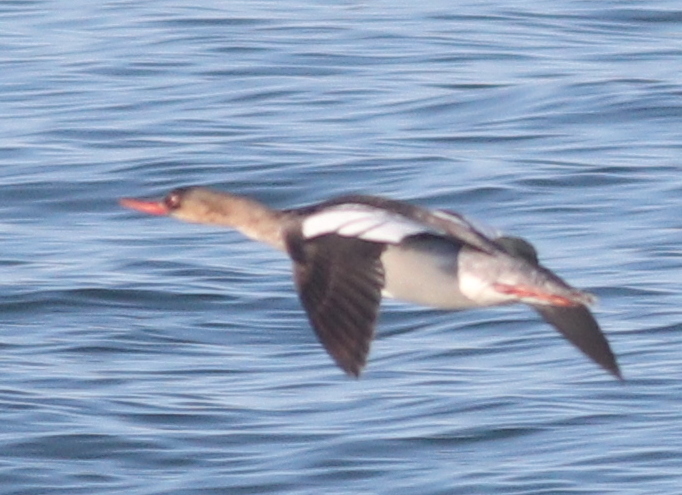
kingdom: Animalia
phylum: Chordata
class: Aves
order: Anseriformes
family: Anatidae
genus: Mergus
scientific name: Mergus serrator
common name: Red-breasted merganser
